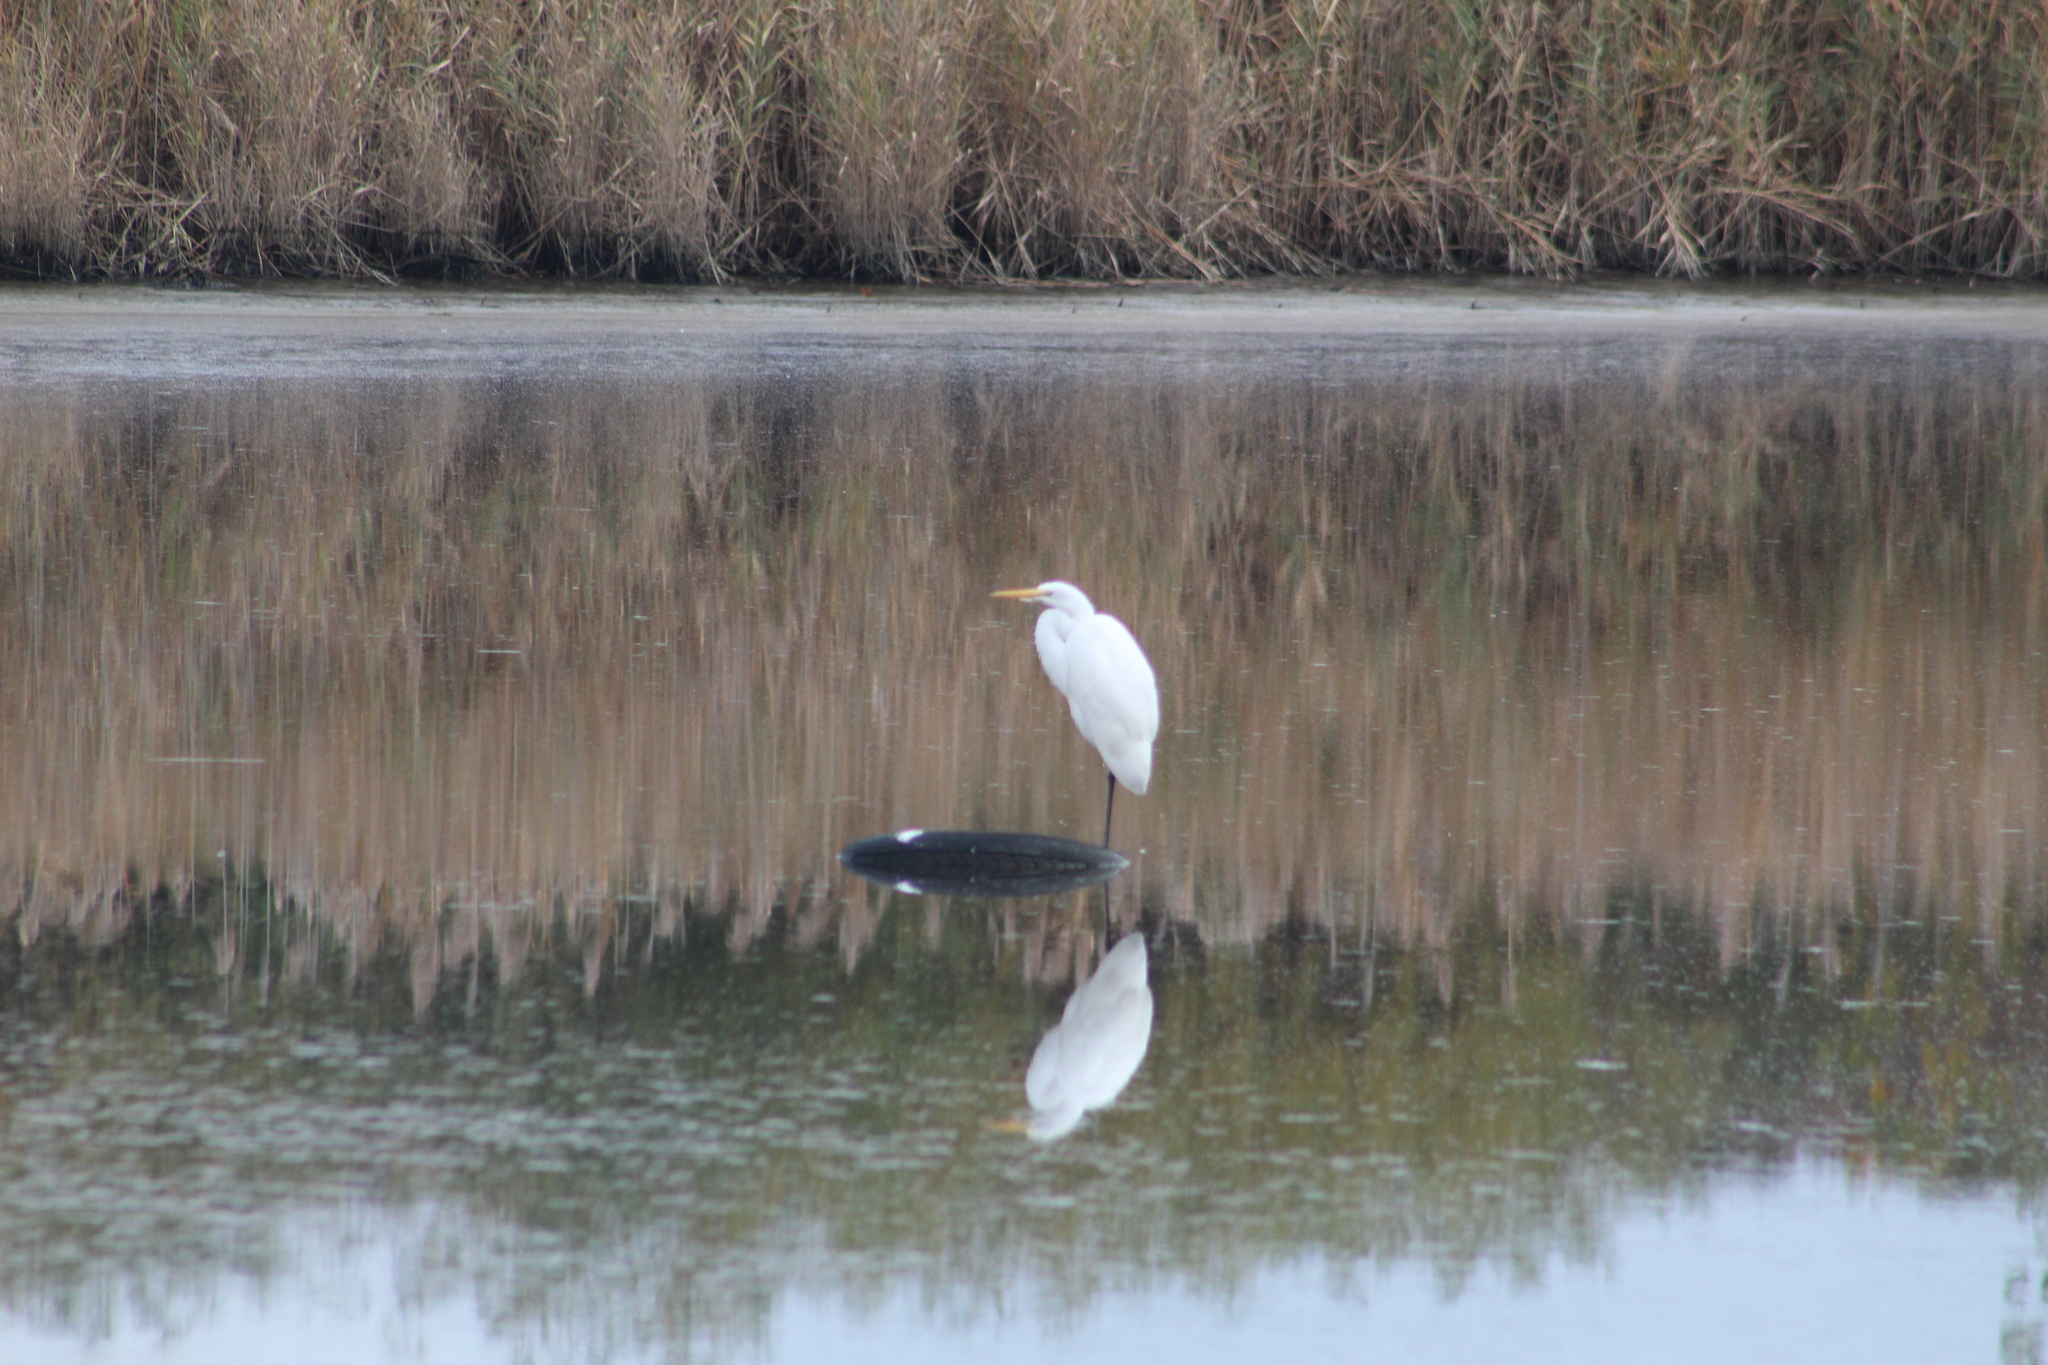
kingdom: Animalia
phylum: Chordata
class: Aves
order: Pelecaniformes
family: Ardeidae
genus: Ardea
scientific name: Ardea alba
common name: Great egret
